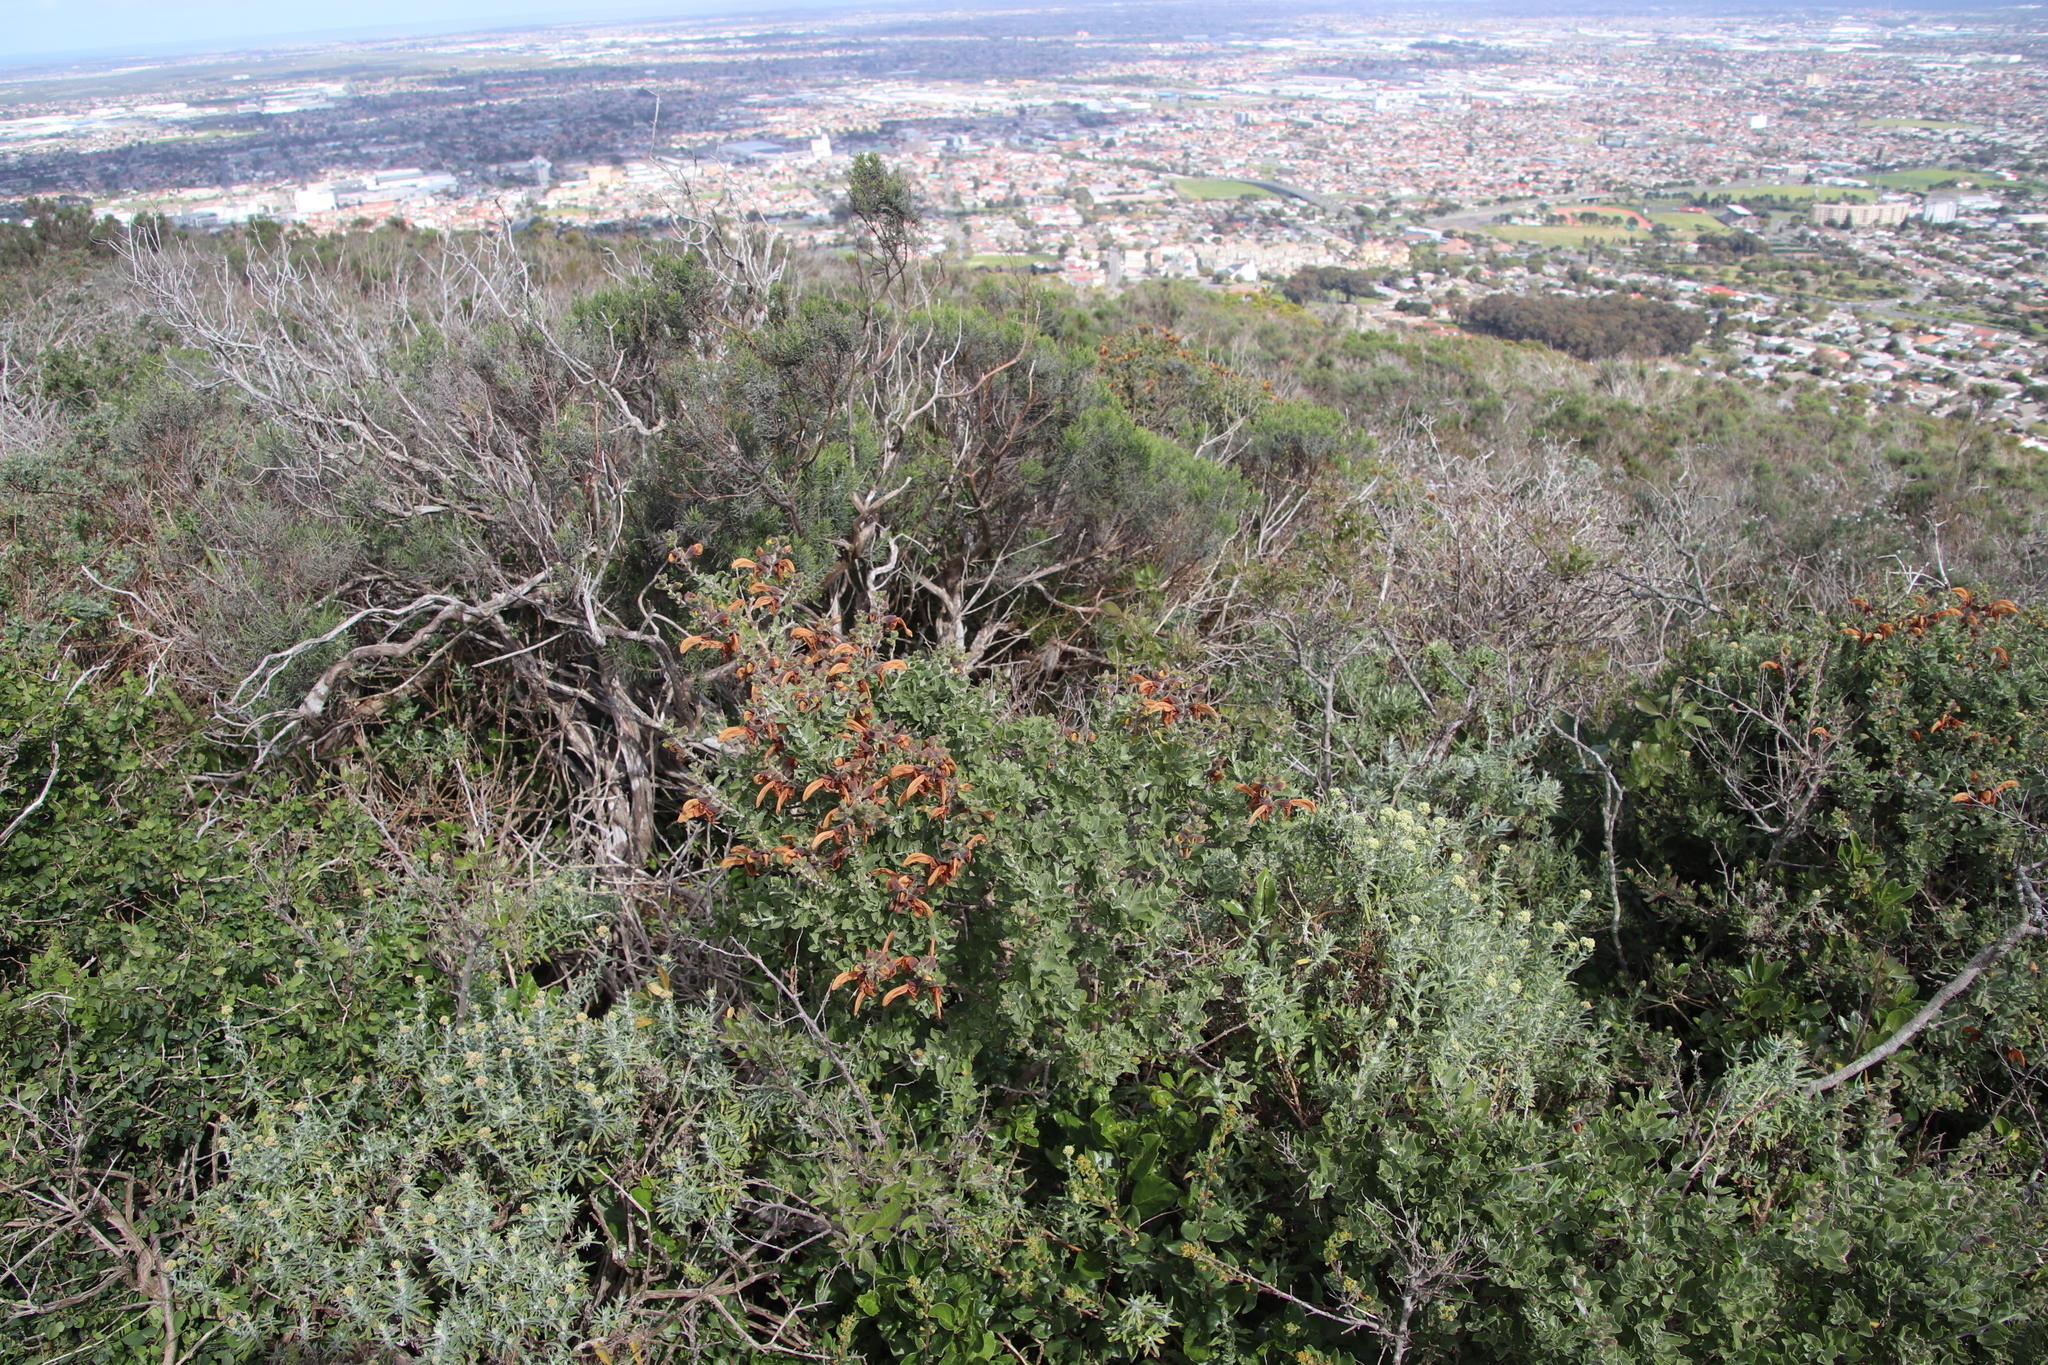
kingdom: Plantae
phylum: Tracheophyta
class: Magnoliopsida
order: Lamiales
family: Lamiaceae
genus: Salvia
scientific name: Salvia aurea
